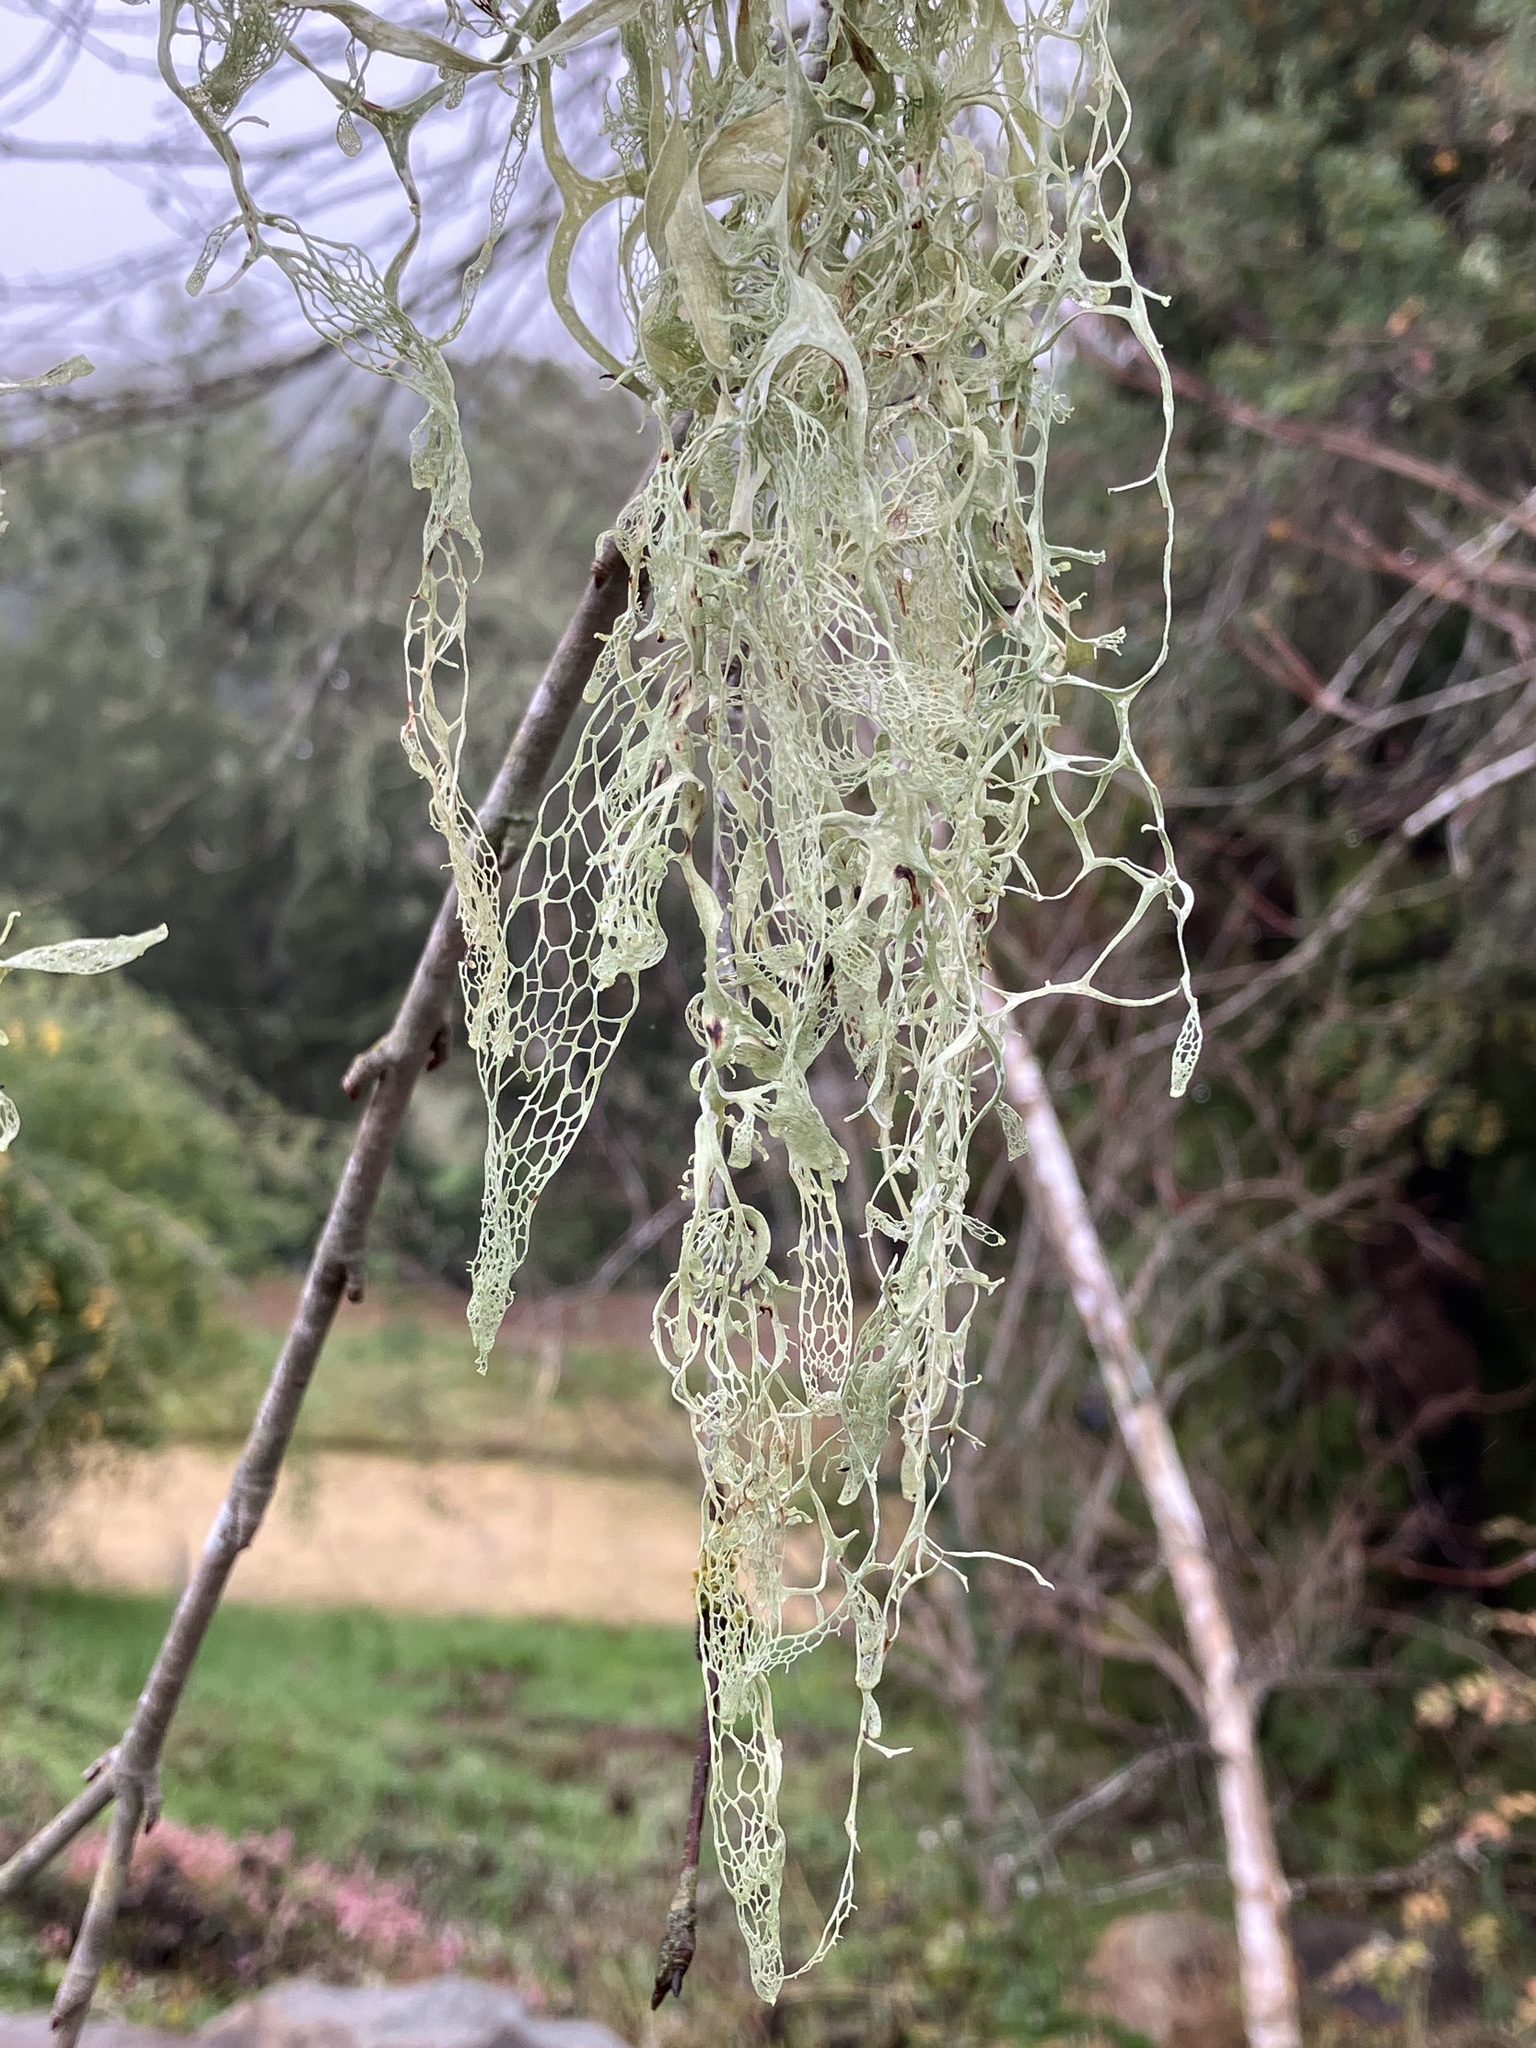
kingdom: Fungi
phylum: Ascomycota
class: Lecanoromycetes
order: Lecanorales
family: Ramalinaceae
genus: Ramalina
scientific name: Ramalina menziesii
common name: Lace lichen
